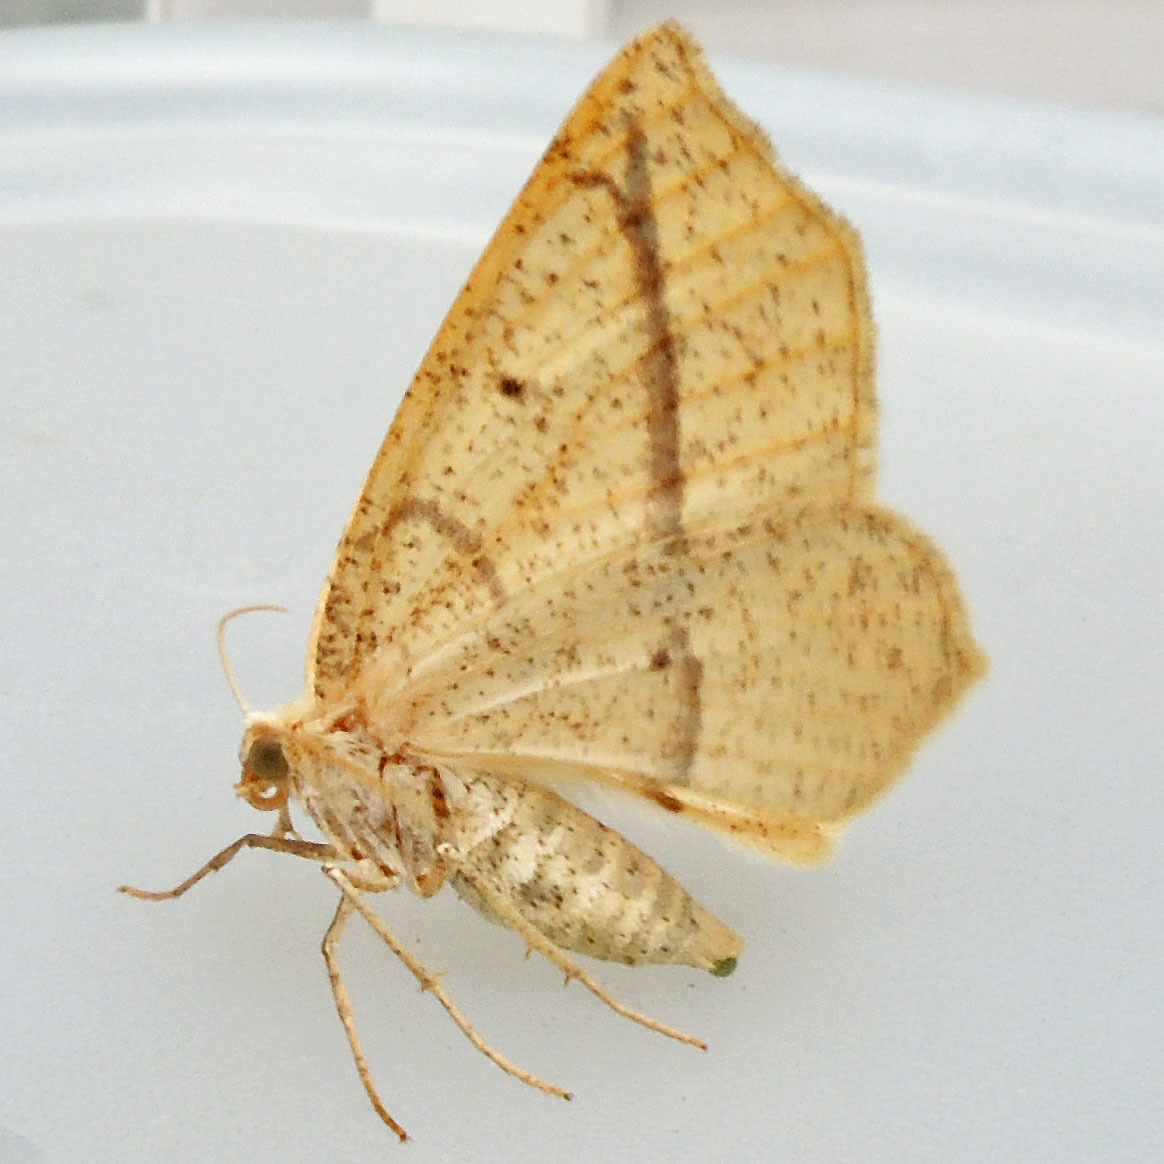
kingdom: Animalia
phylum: Arthropoda
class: Insecta
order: Lepidoptera
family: Geometridae
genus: Eusarca
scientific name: Eusarca confusaria
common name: Confused eusarca
